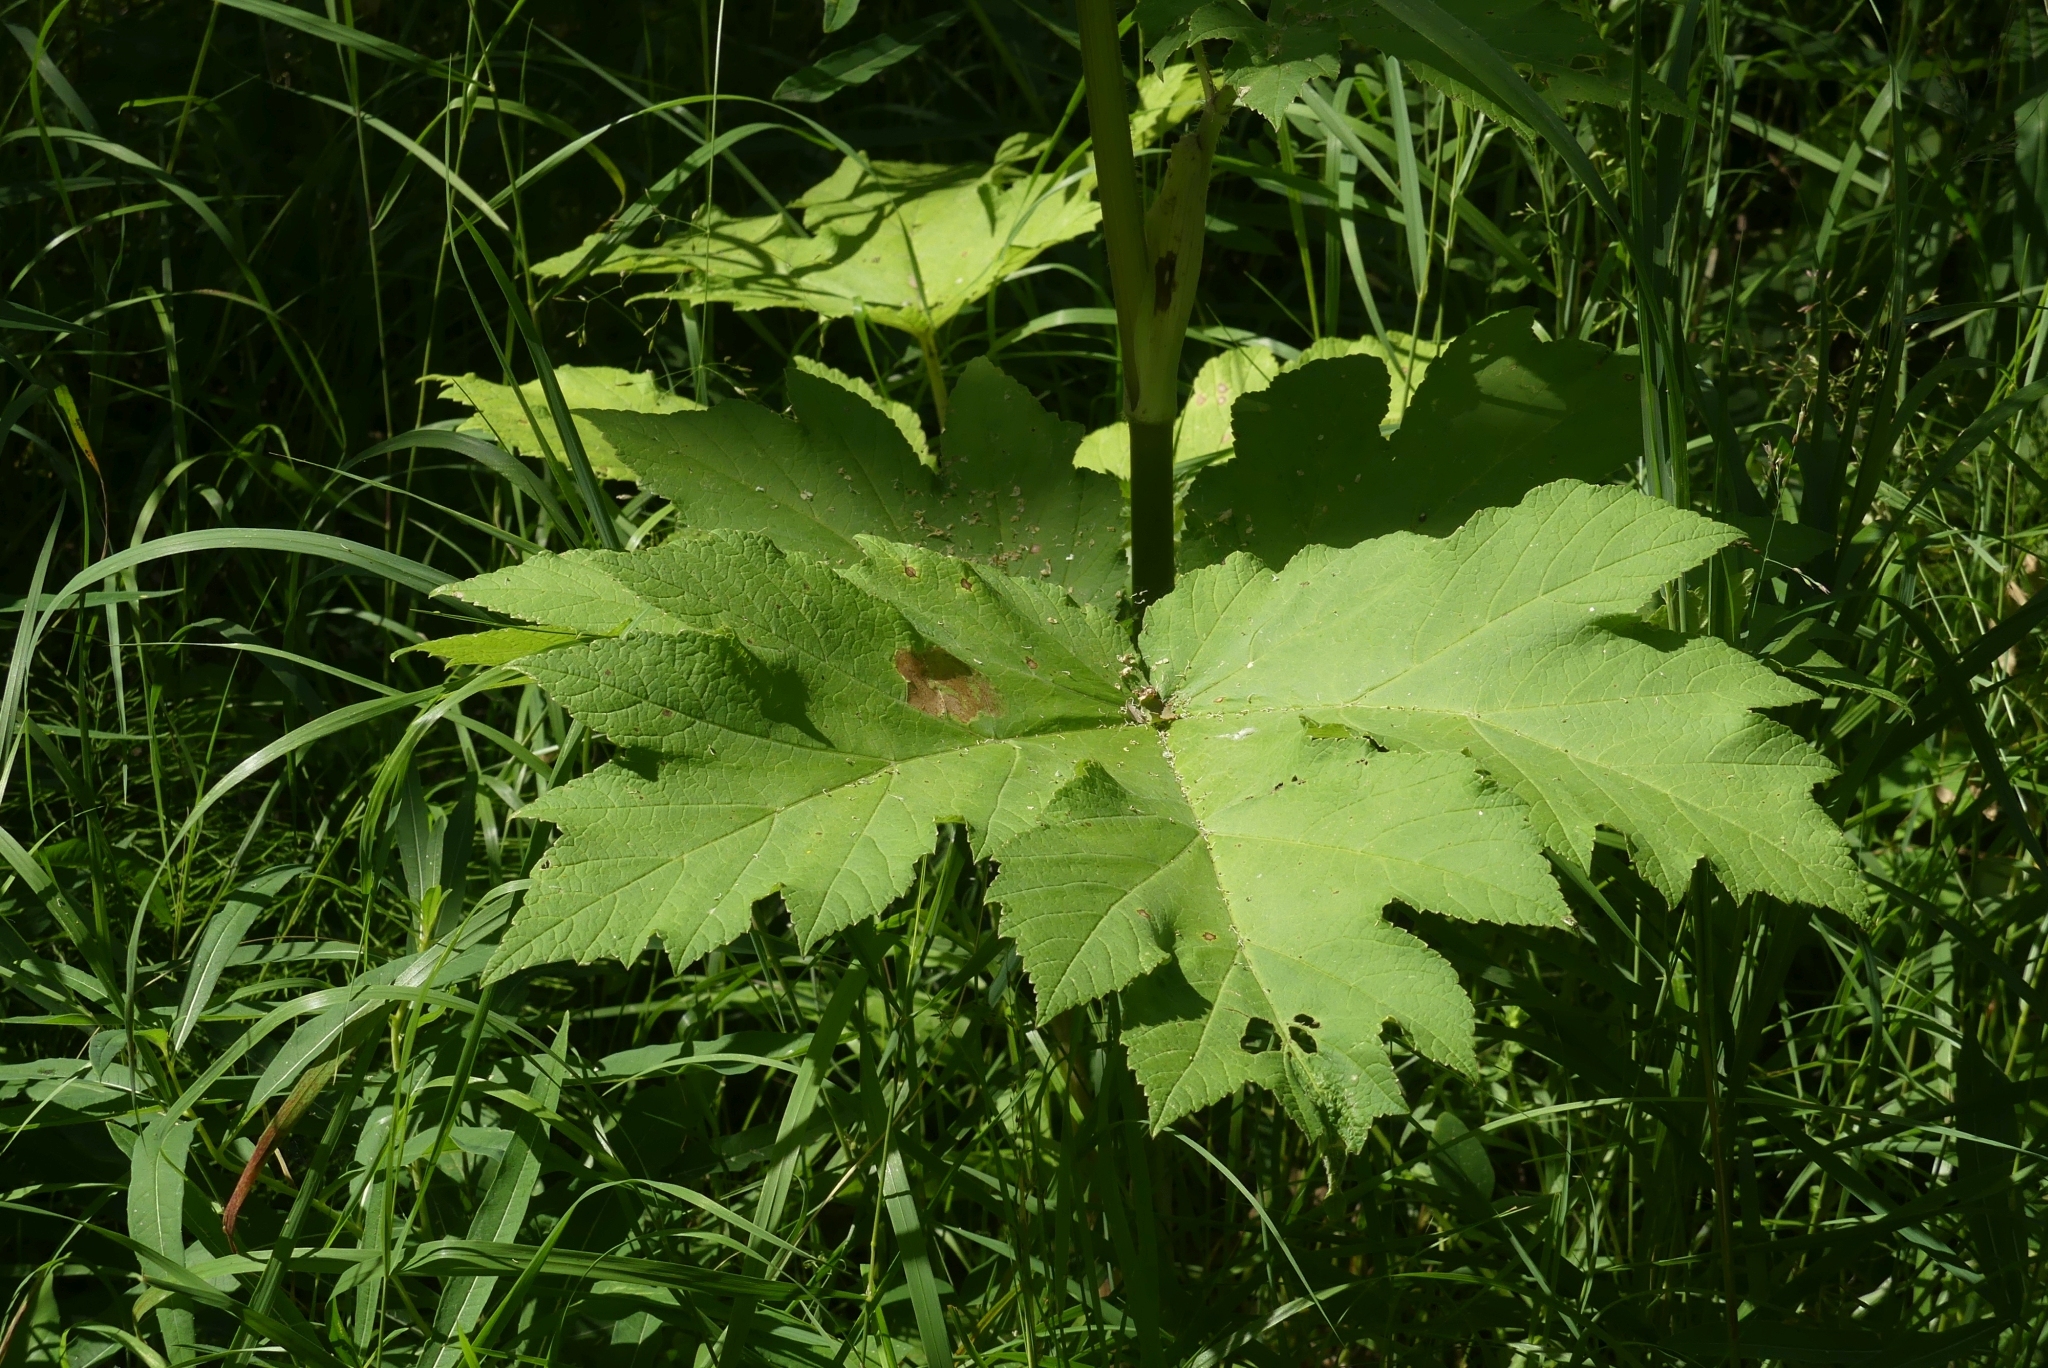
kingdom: Plantae
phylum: Tracheophyta
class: Magnoliopsida
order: Apiales
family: Apiaceae
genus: Heracleum
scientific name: Heracleum maximum
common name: American cow parsnip
